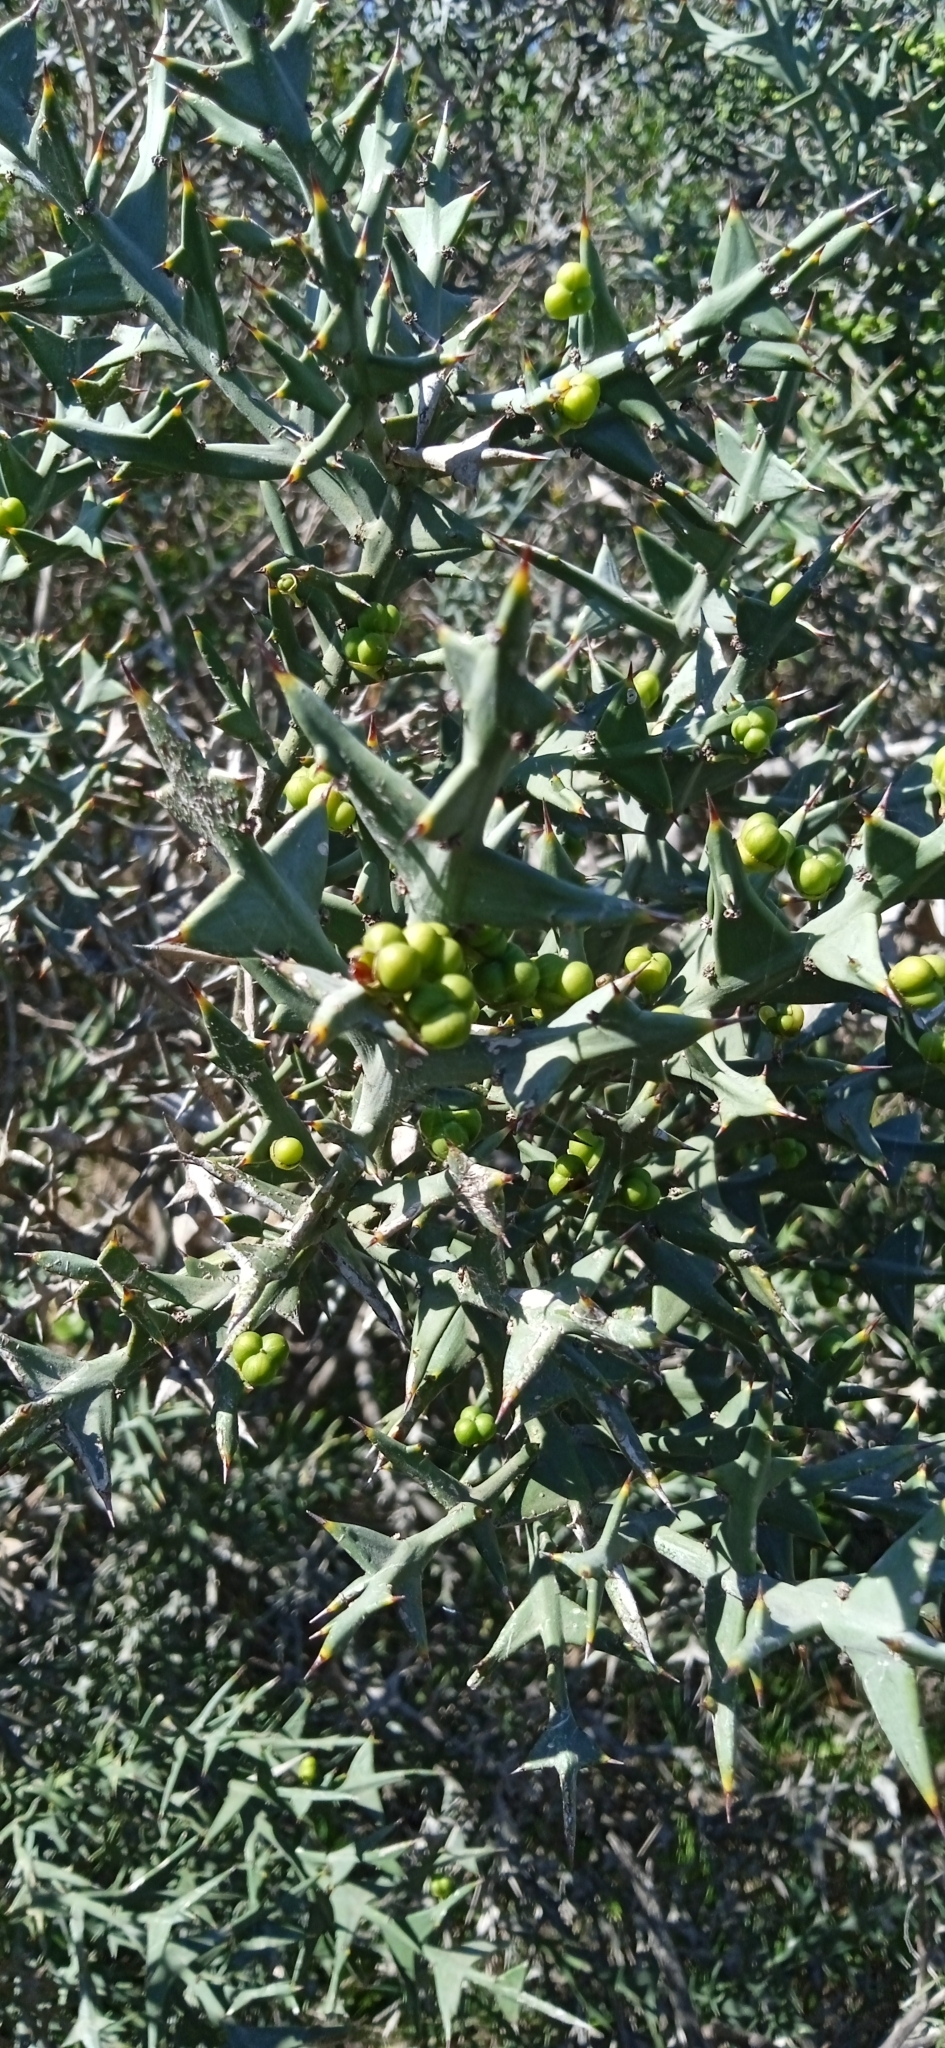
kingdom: Plantae
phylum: Tracheophyta
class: Magnoliopsida
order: Rosales
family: Rhamnaceae
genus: Colletia
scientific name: Colletia paradoxa
